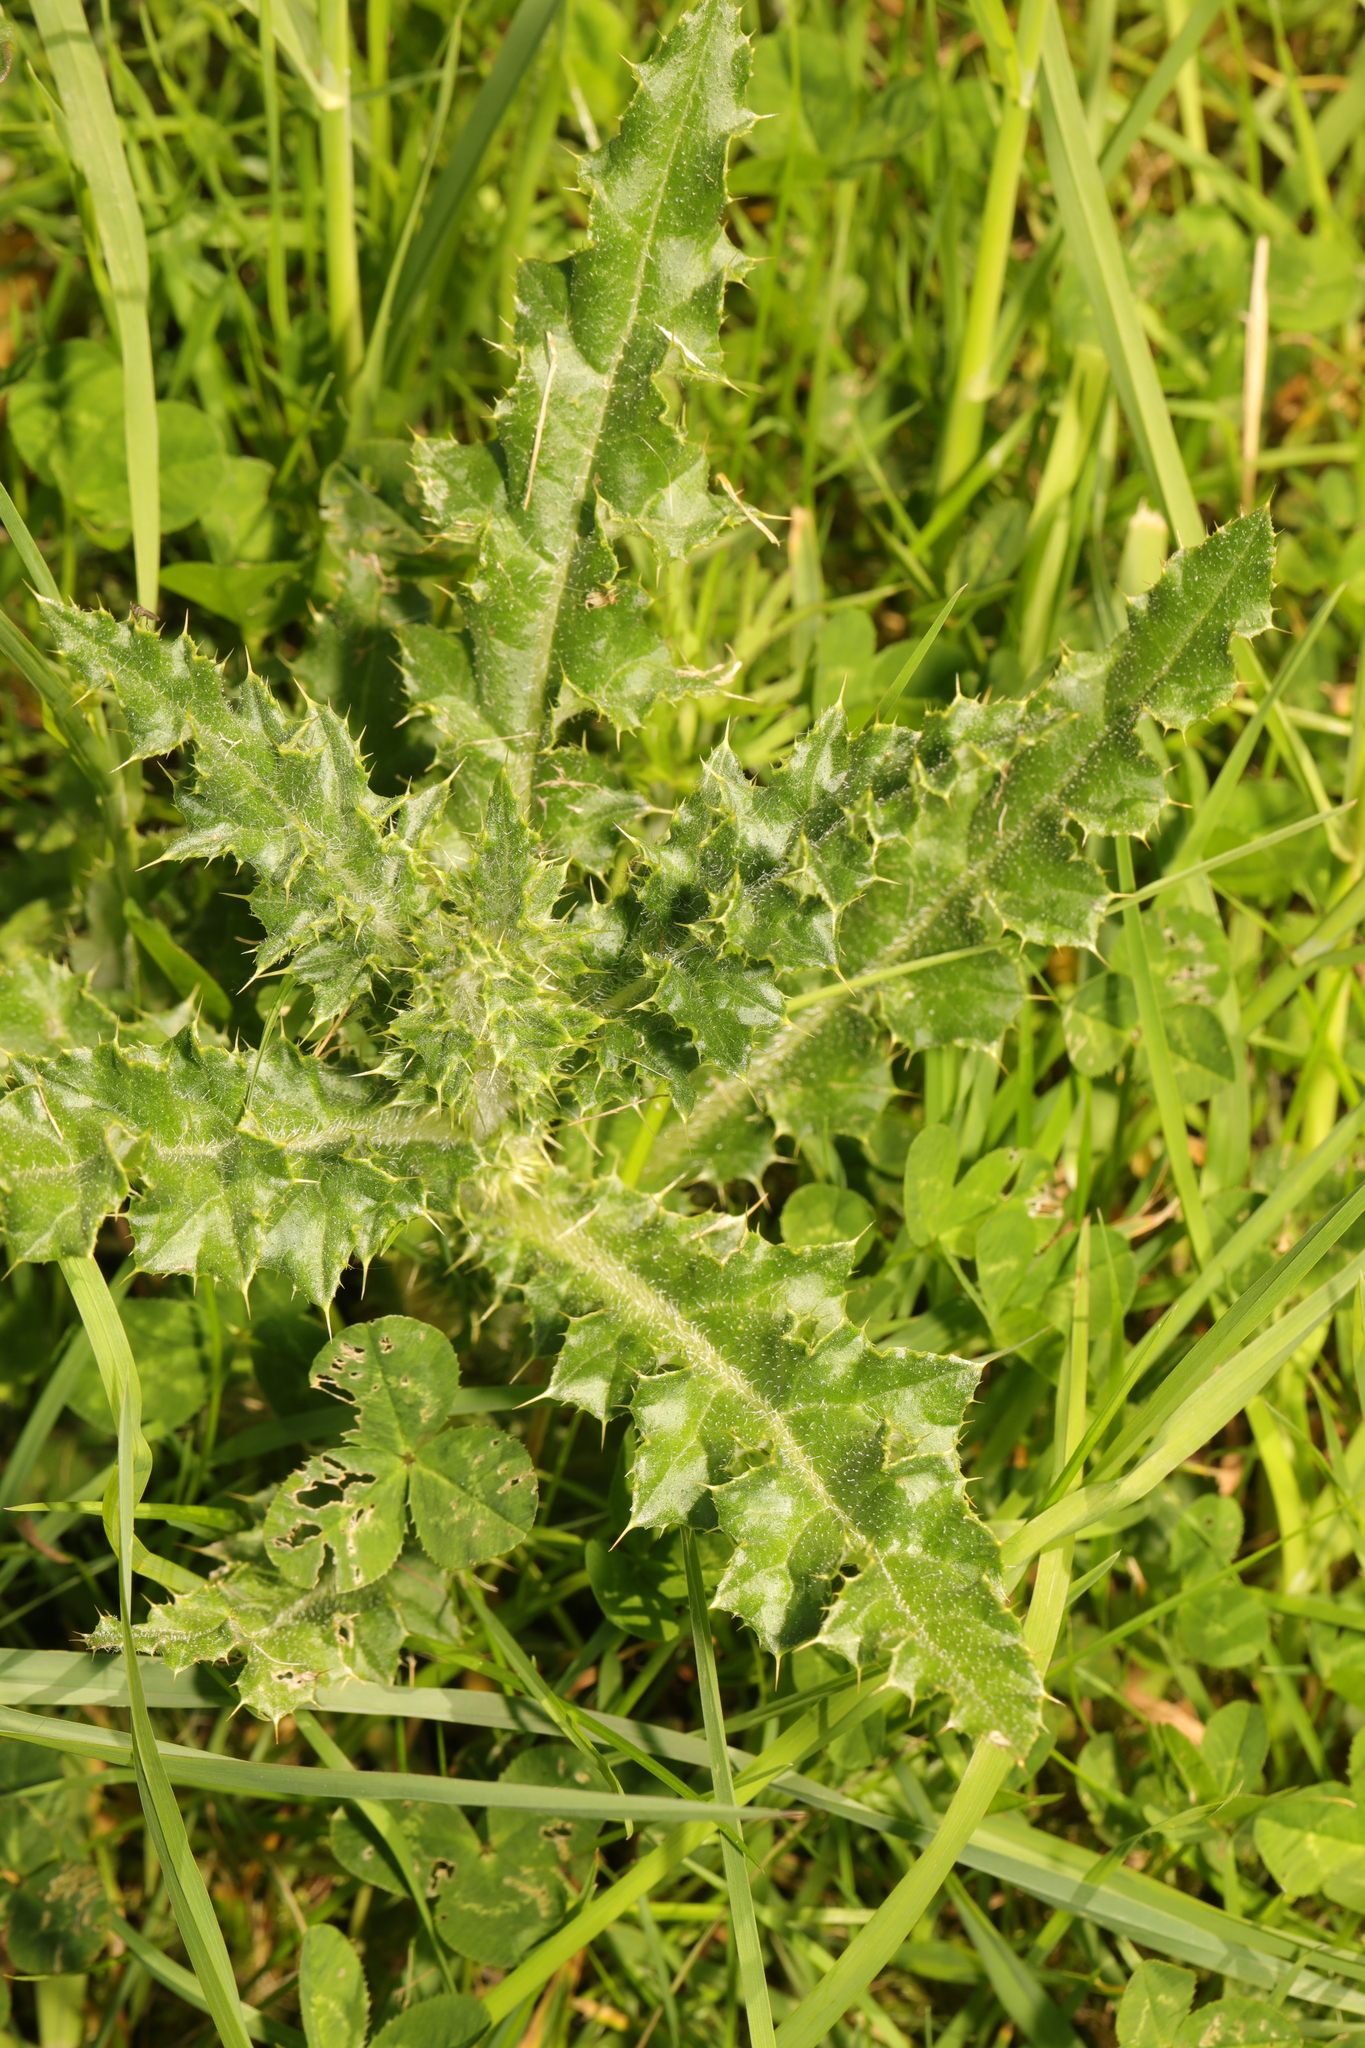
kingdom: Plantae
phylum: Tracheophyta
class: Magnoliopsida
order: Asterales
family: Asteraceae
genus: Cirsium
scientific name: Cirsium arvense
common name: Creeping thistle
